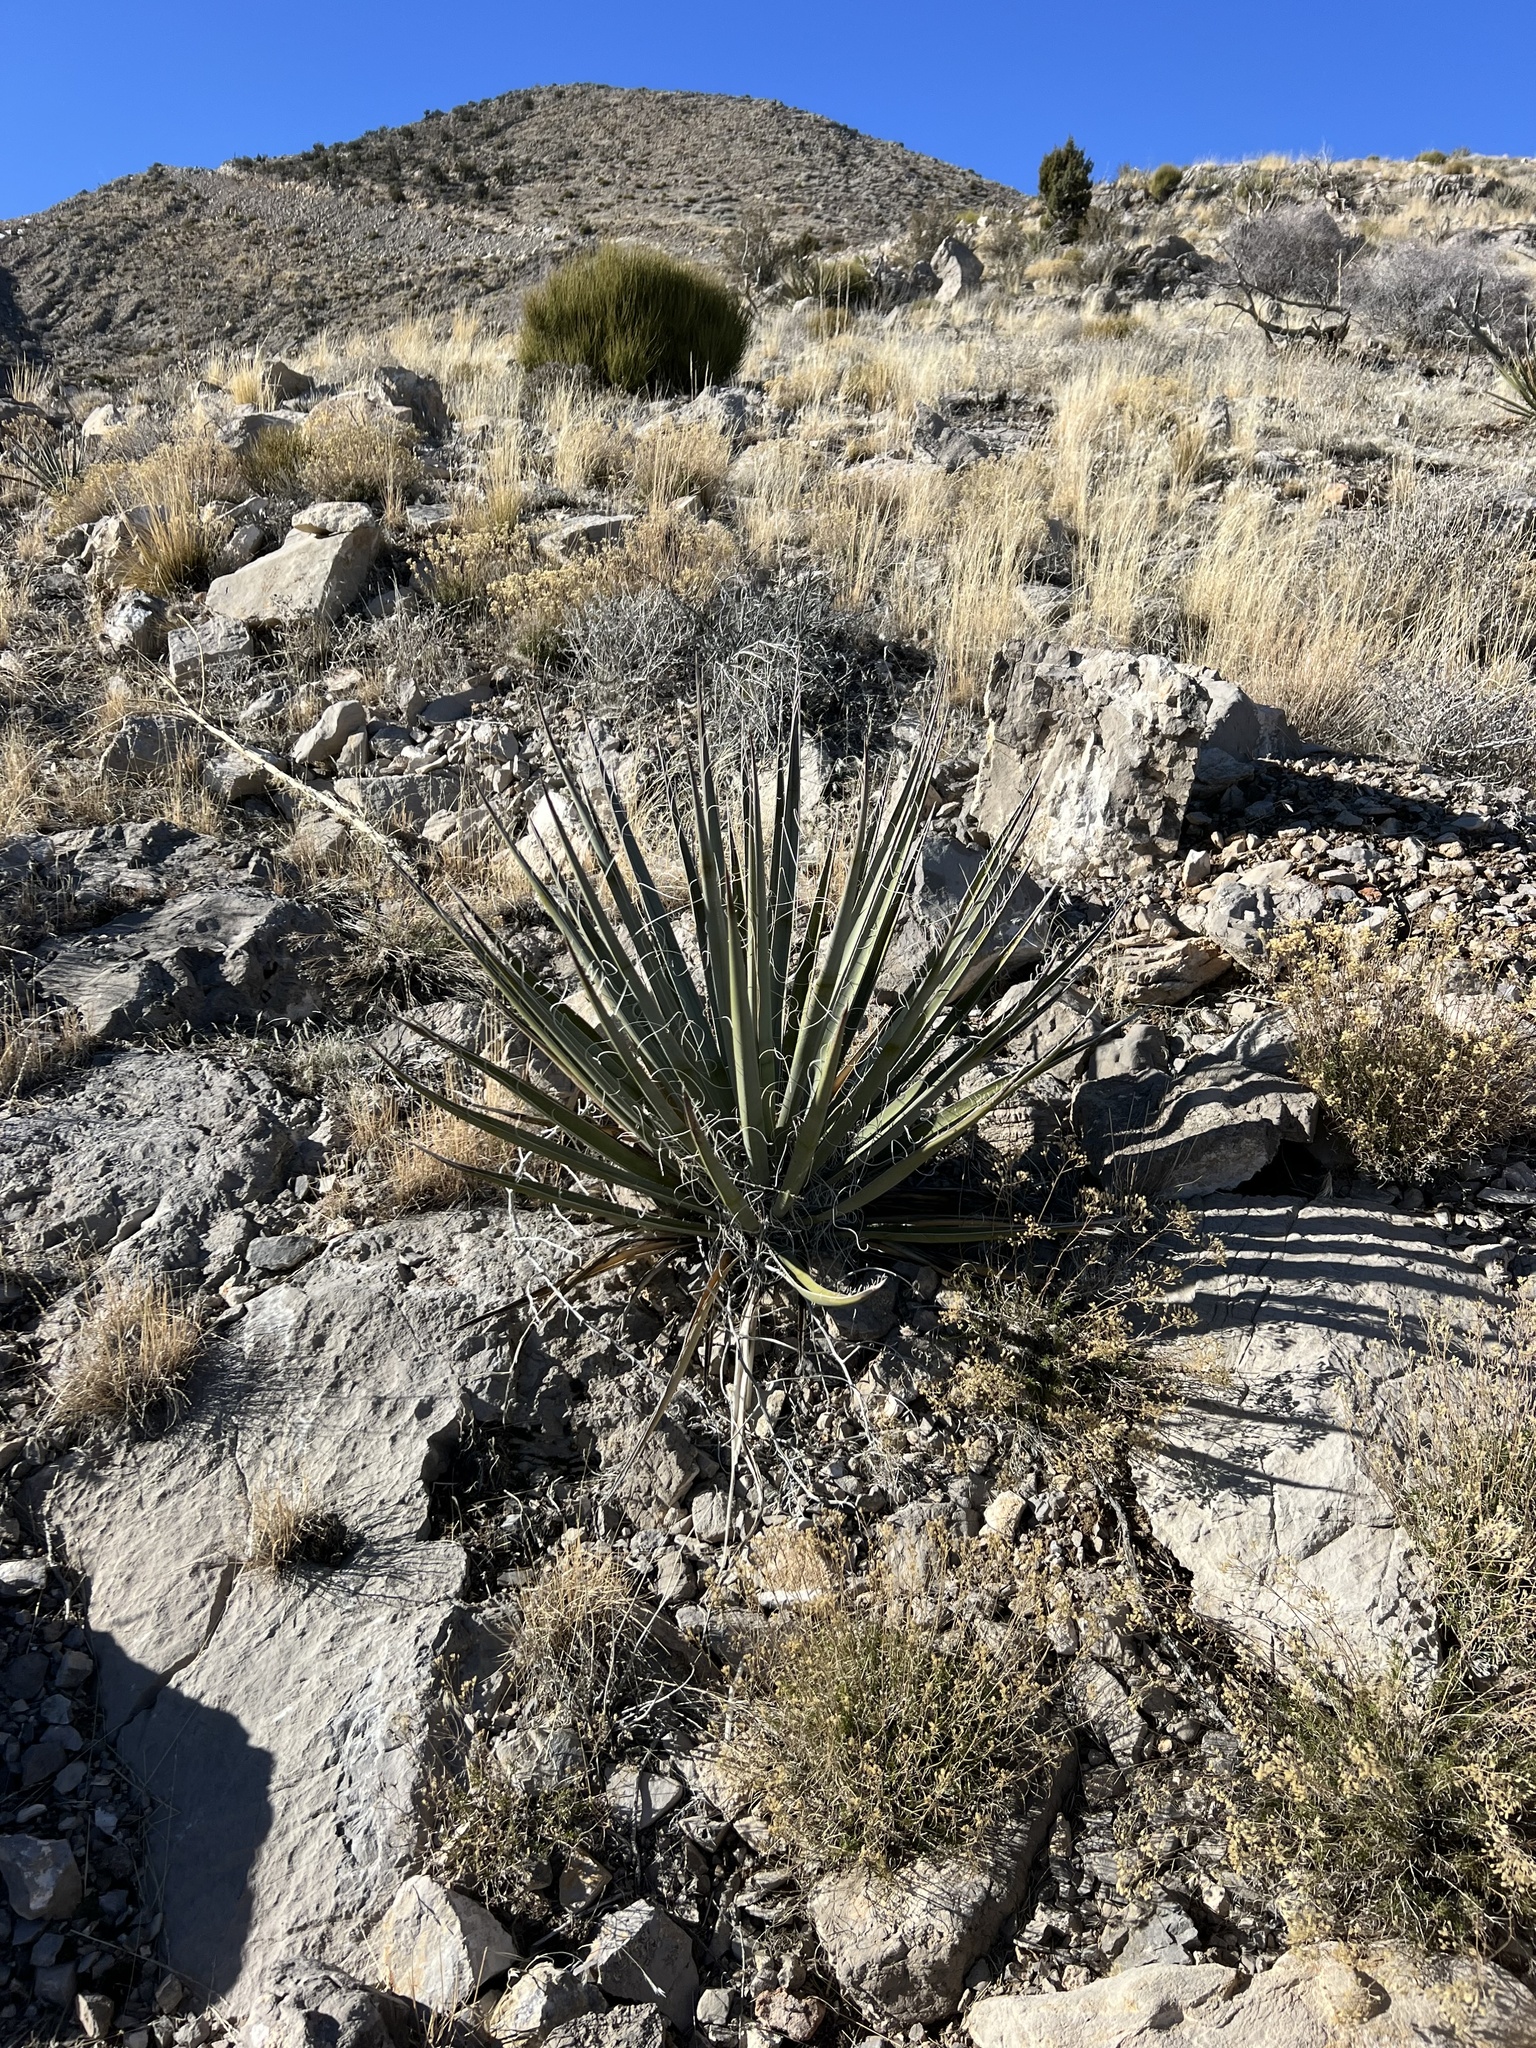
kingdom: Plantae
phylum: Tracheophyta
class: Liliopsida
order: Asparagales
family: Asparagaceae
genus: Yucca
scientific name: Yucca baccata
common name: Banana yucca
